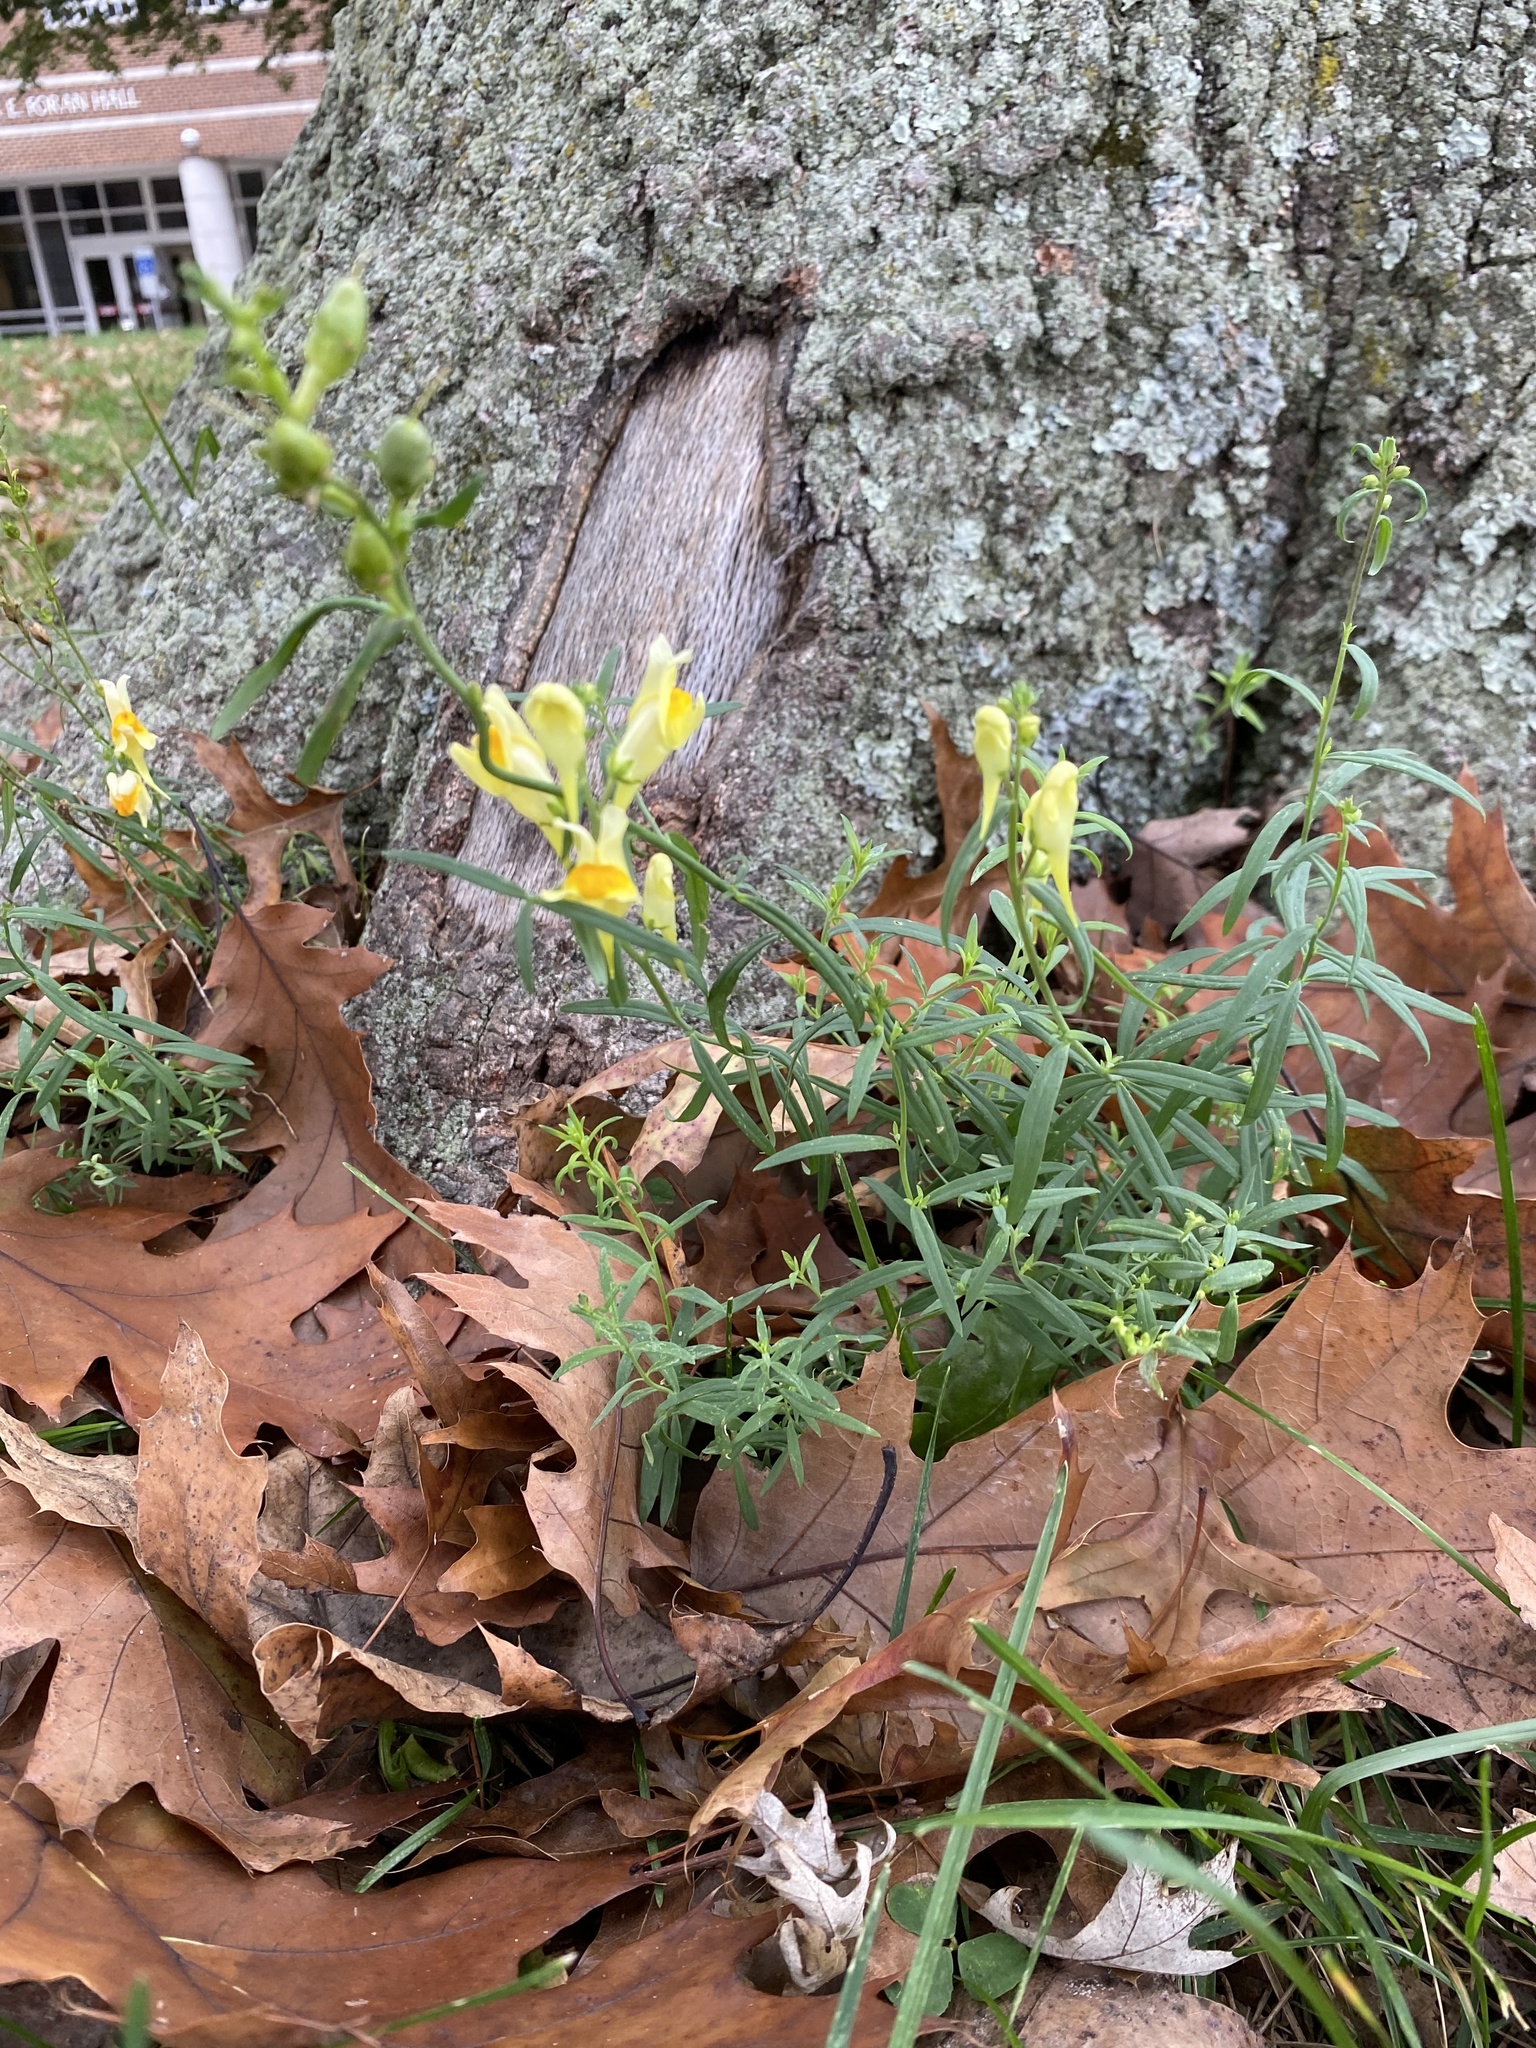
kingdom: Plantae
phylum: Tracheophyta
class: Magnoliopsida
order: Lamiales
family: Plantaginaceae
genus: Linaria
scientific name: Linaria vulgaris
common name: Butter and eggs
